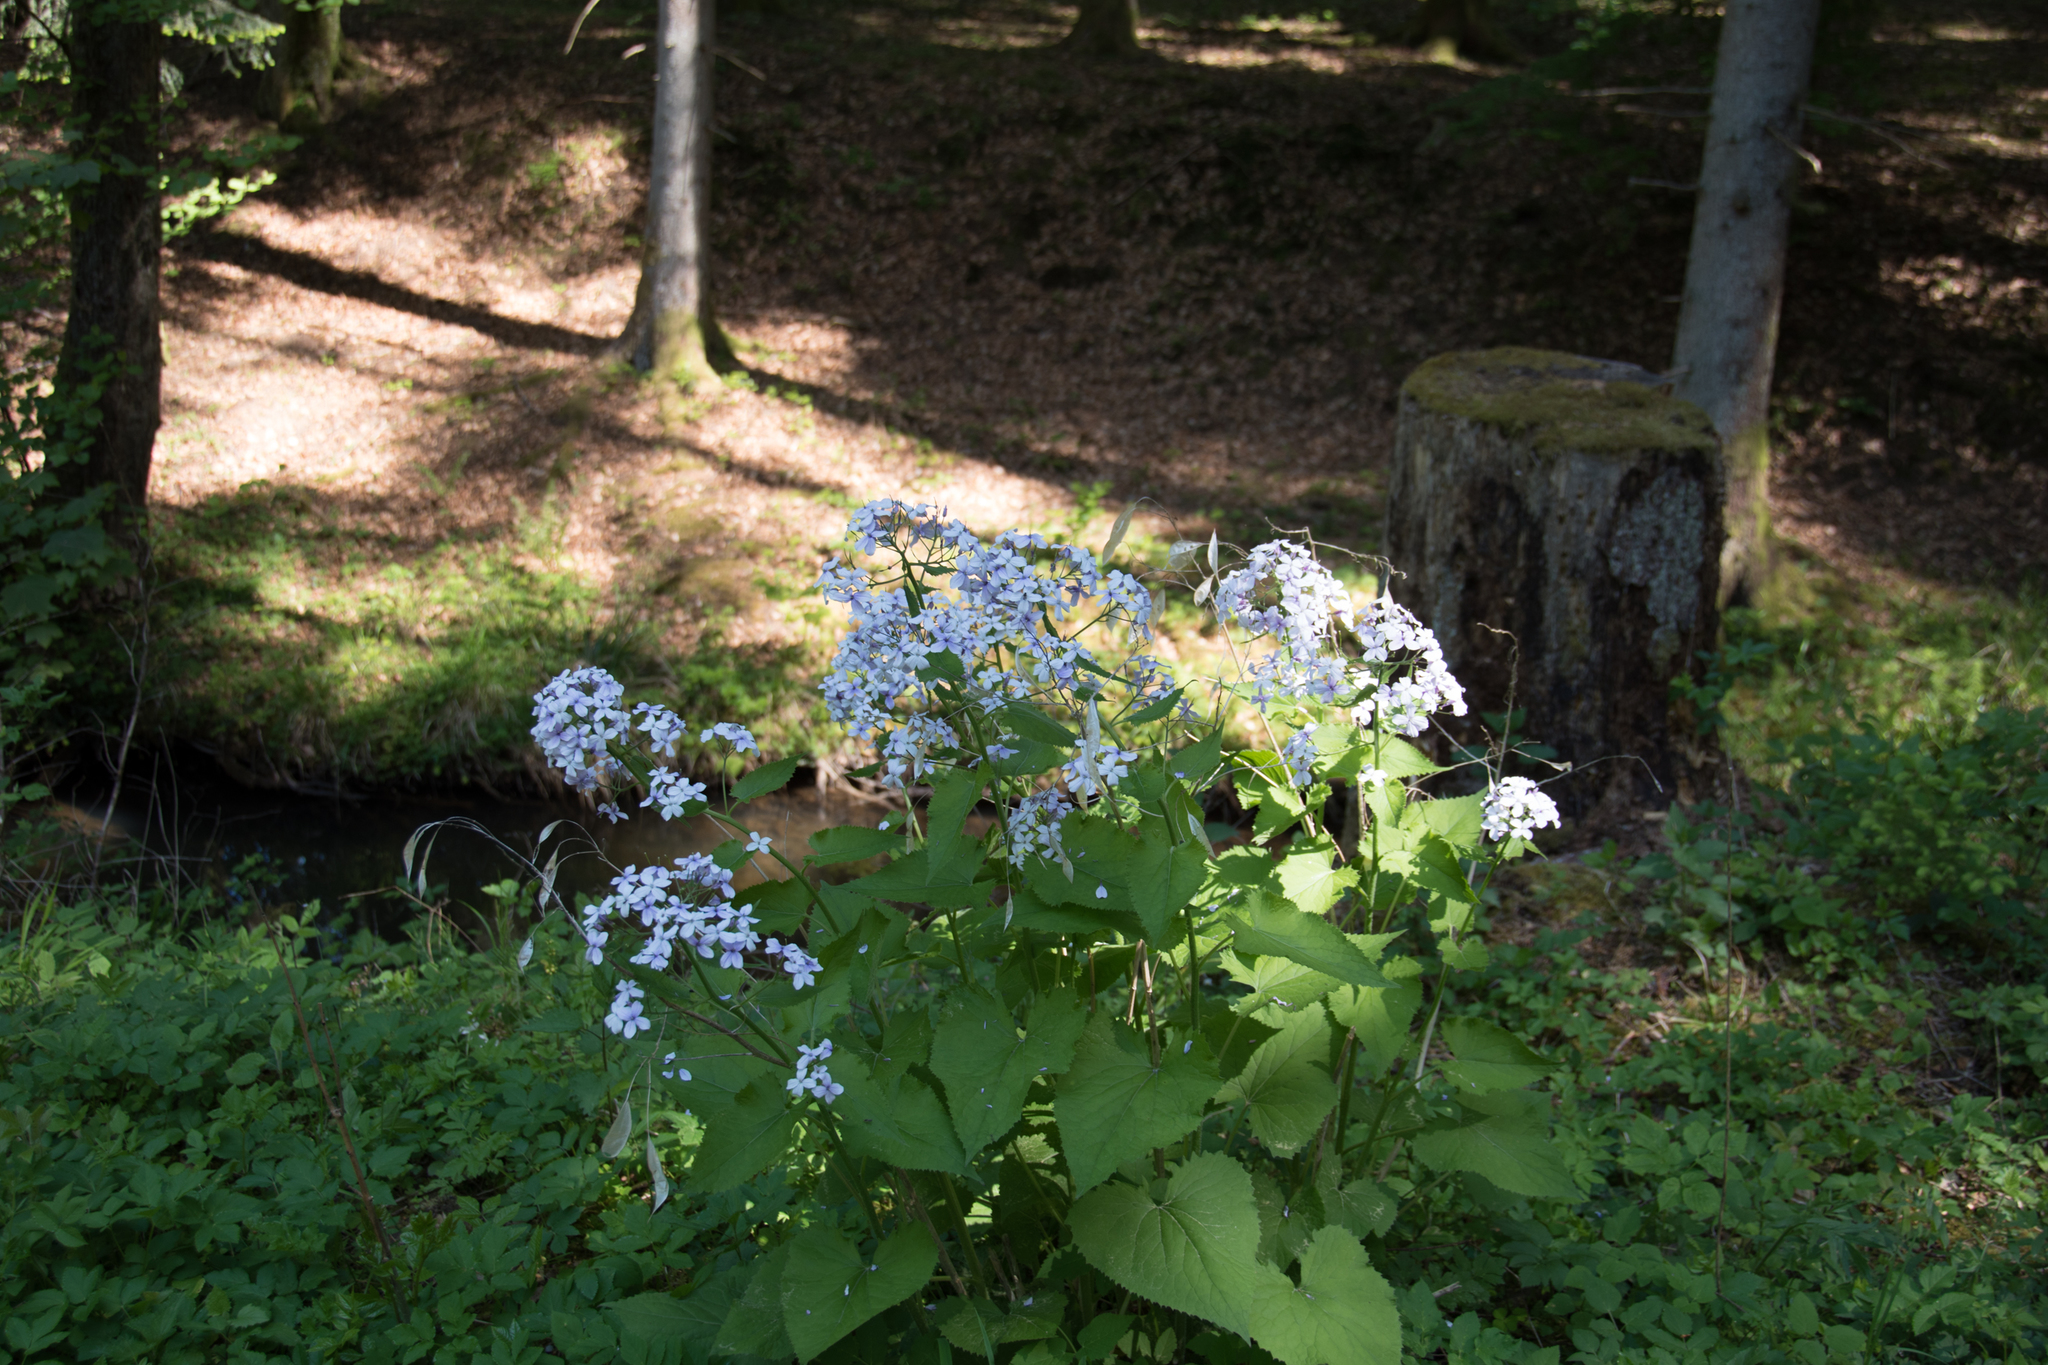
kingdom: Plantae
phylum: Tracheophyta
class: Magnoliopsida
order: Brassicales
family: Brassicaceae
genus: Lunaria
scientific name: Lunaria rediviva
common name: Perennial honesty
